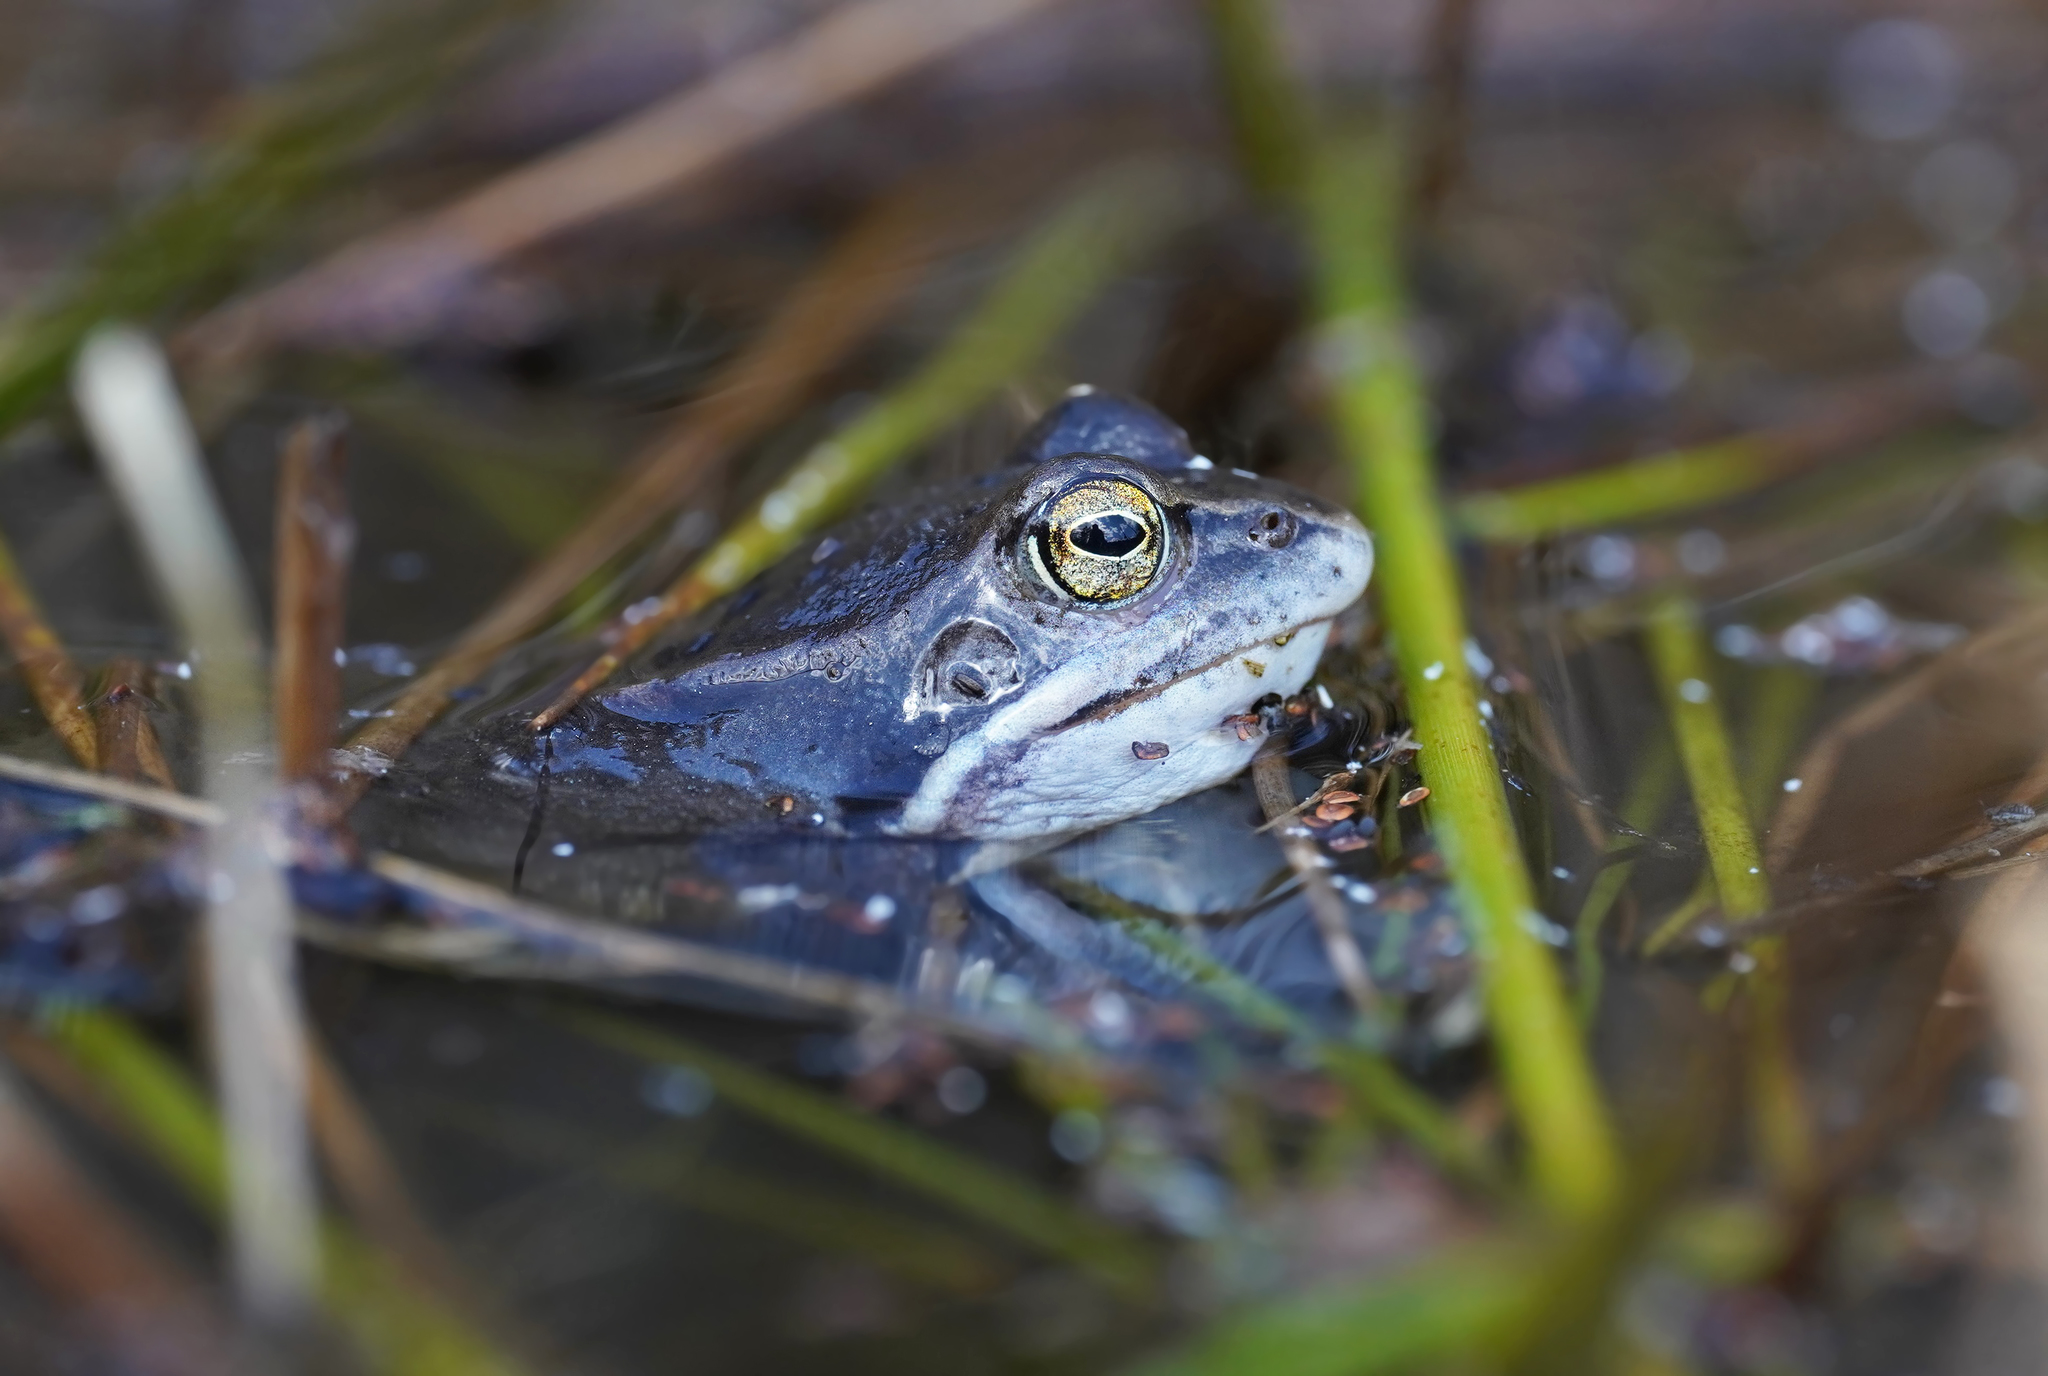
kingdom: Animalia
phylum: Chordata
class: Amphibia
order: Anura
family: Ranidae
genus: Rana
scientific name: Rana arvalis
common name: Moor frog
